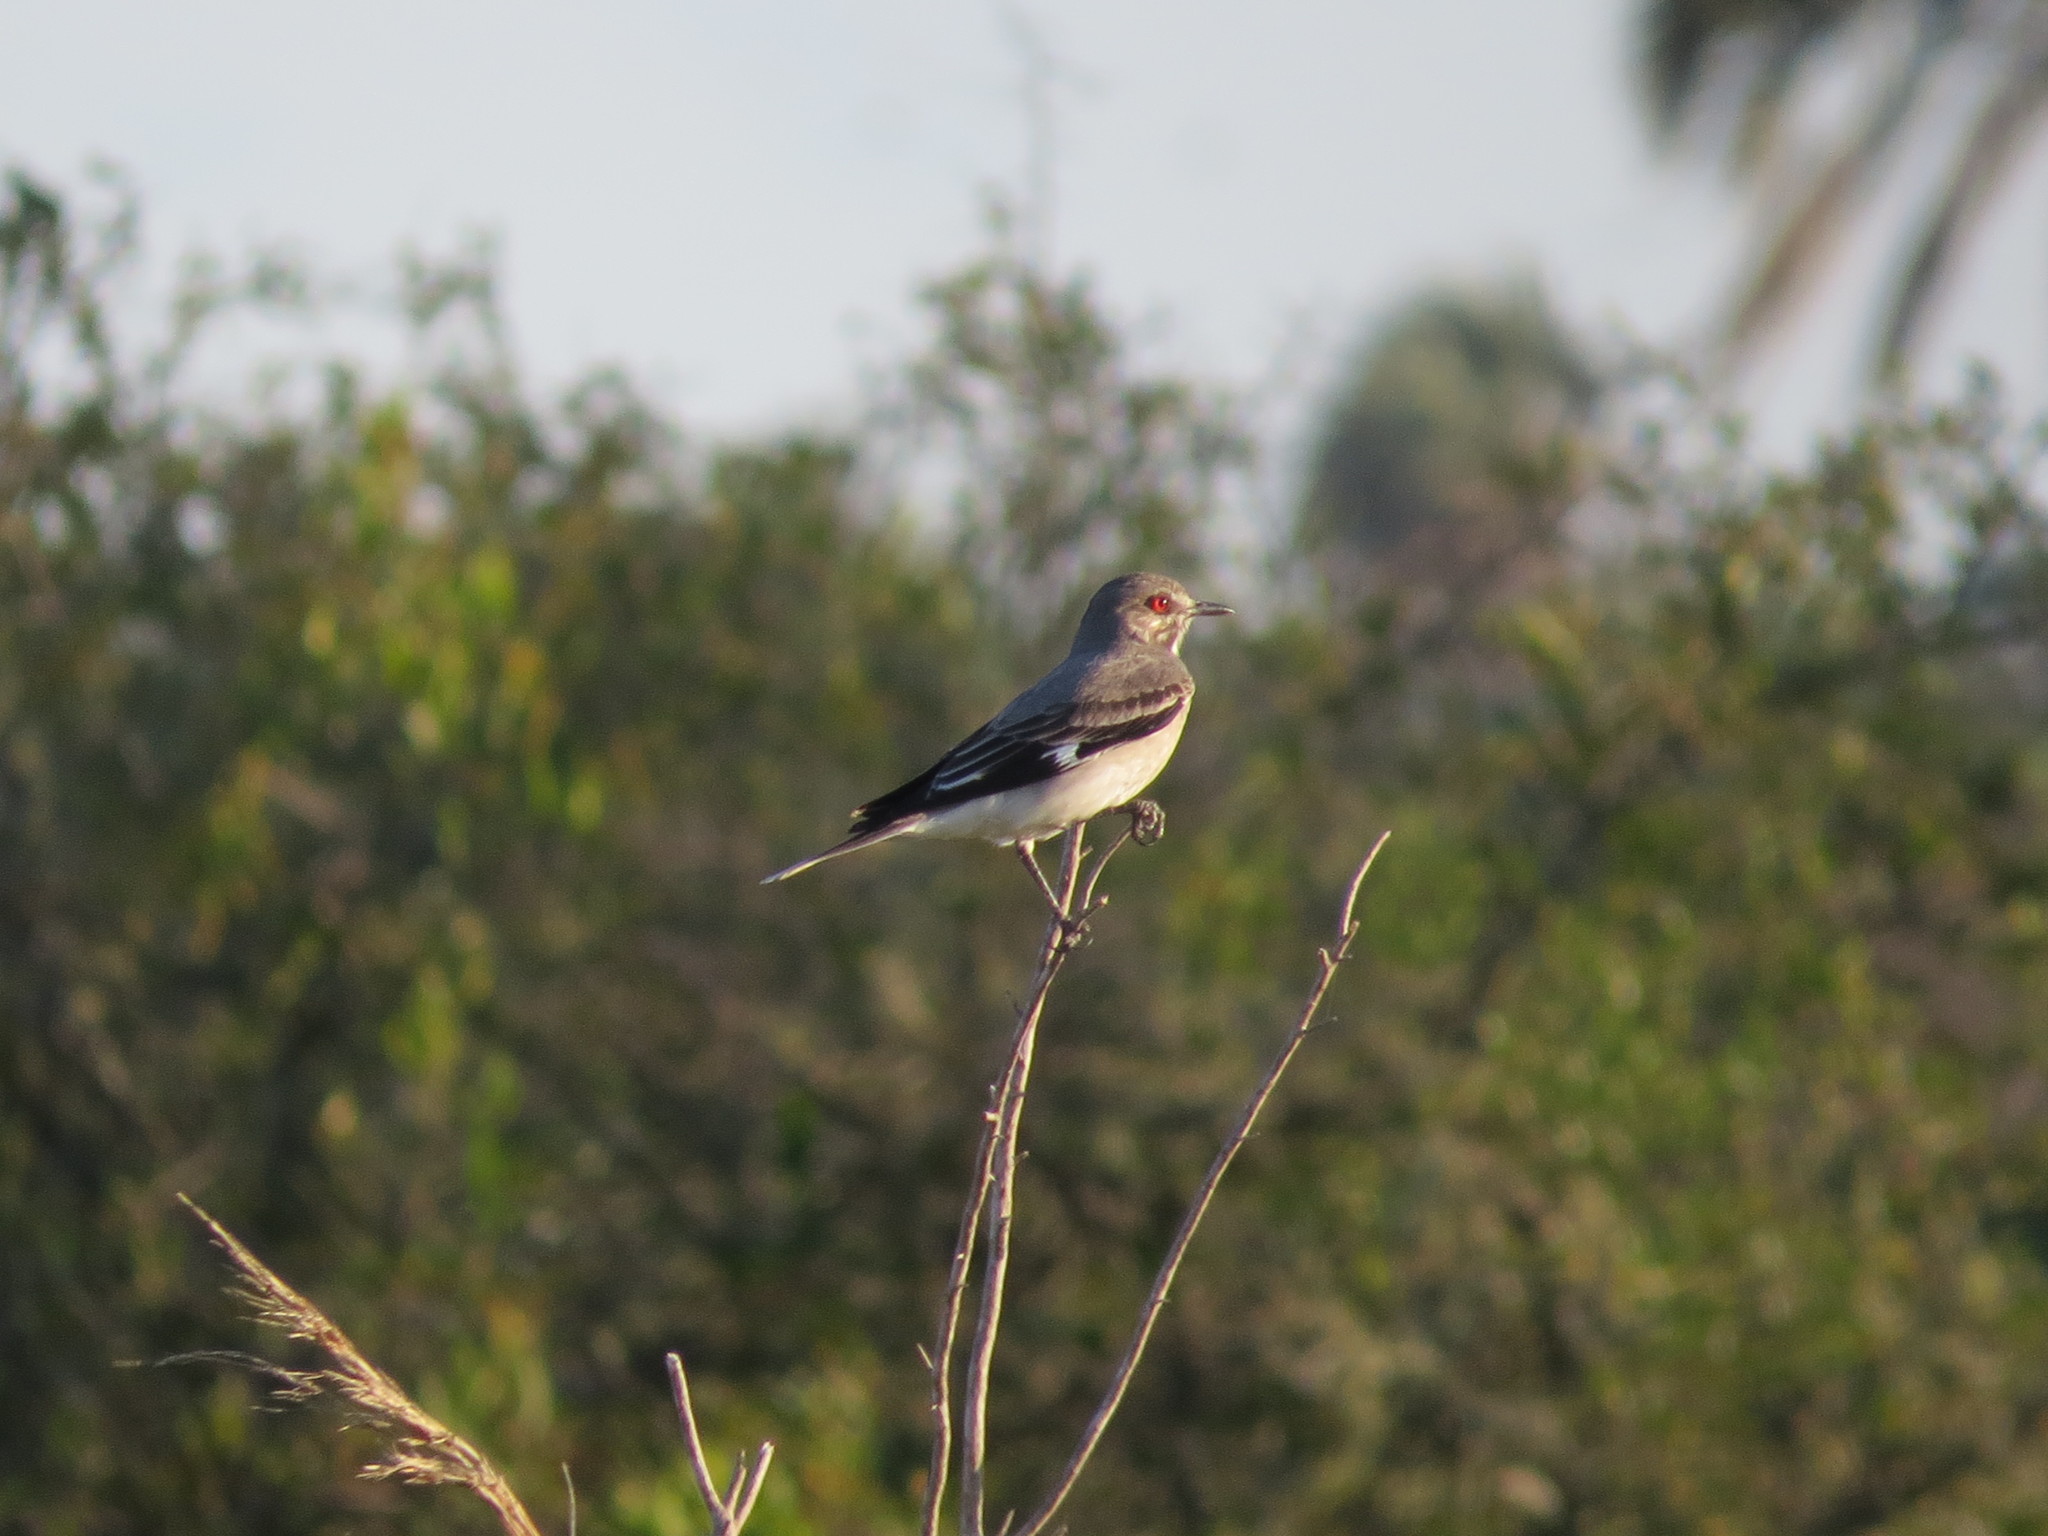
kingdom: Animalia
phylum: Chordata
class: Aves
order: Passeriformes
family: Tyrannidae
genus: Xolmis
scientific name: Xolmis cinereus
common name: Grey monjita
